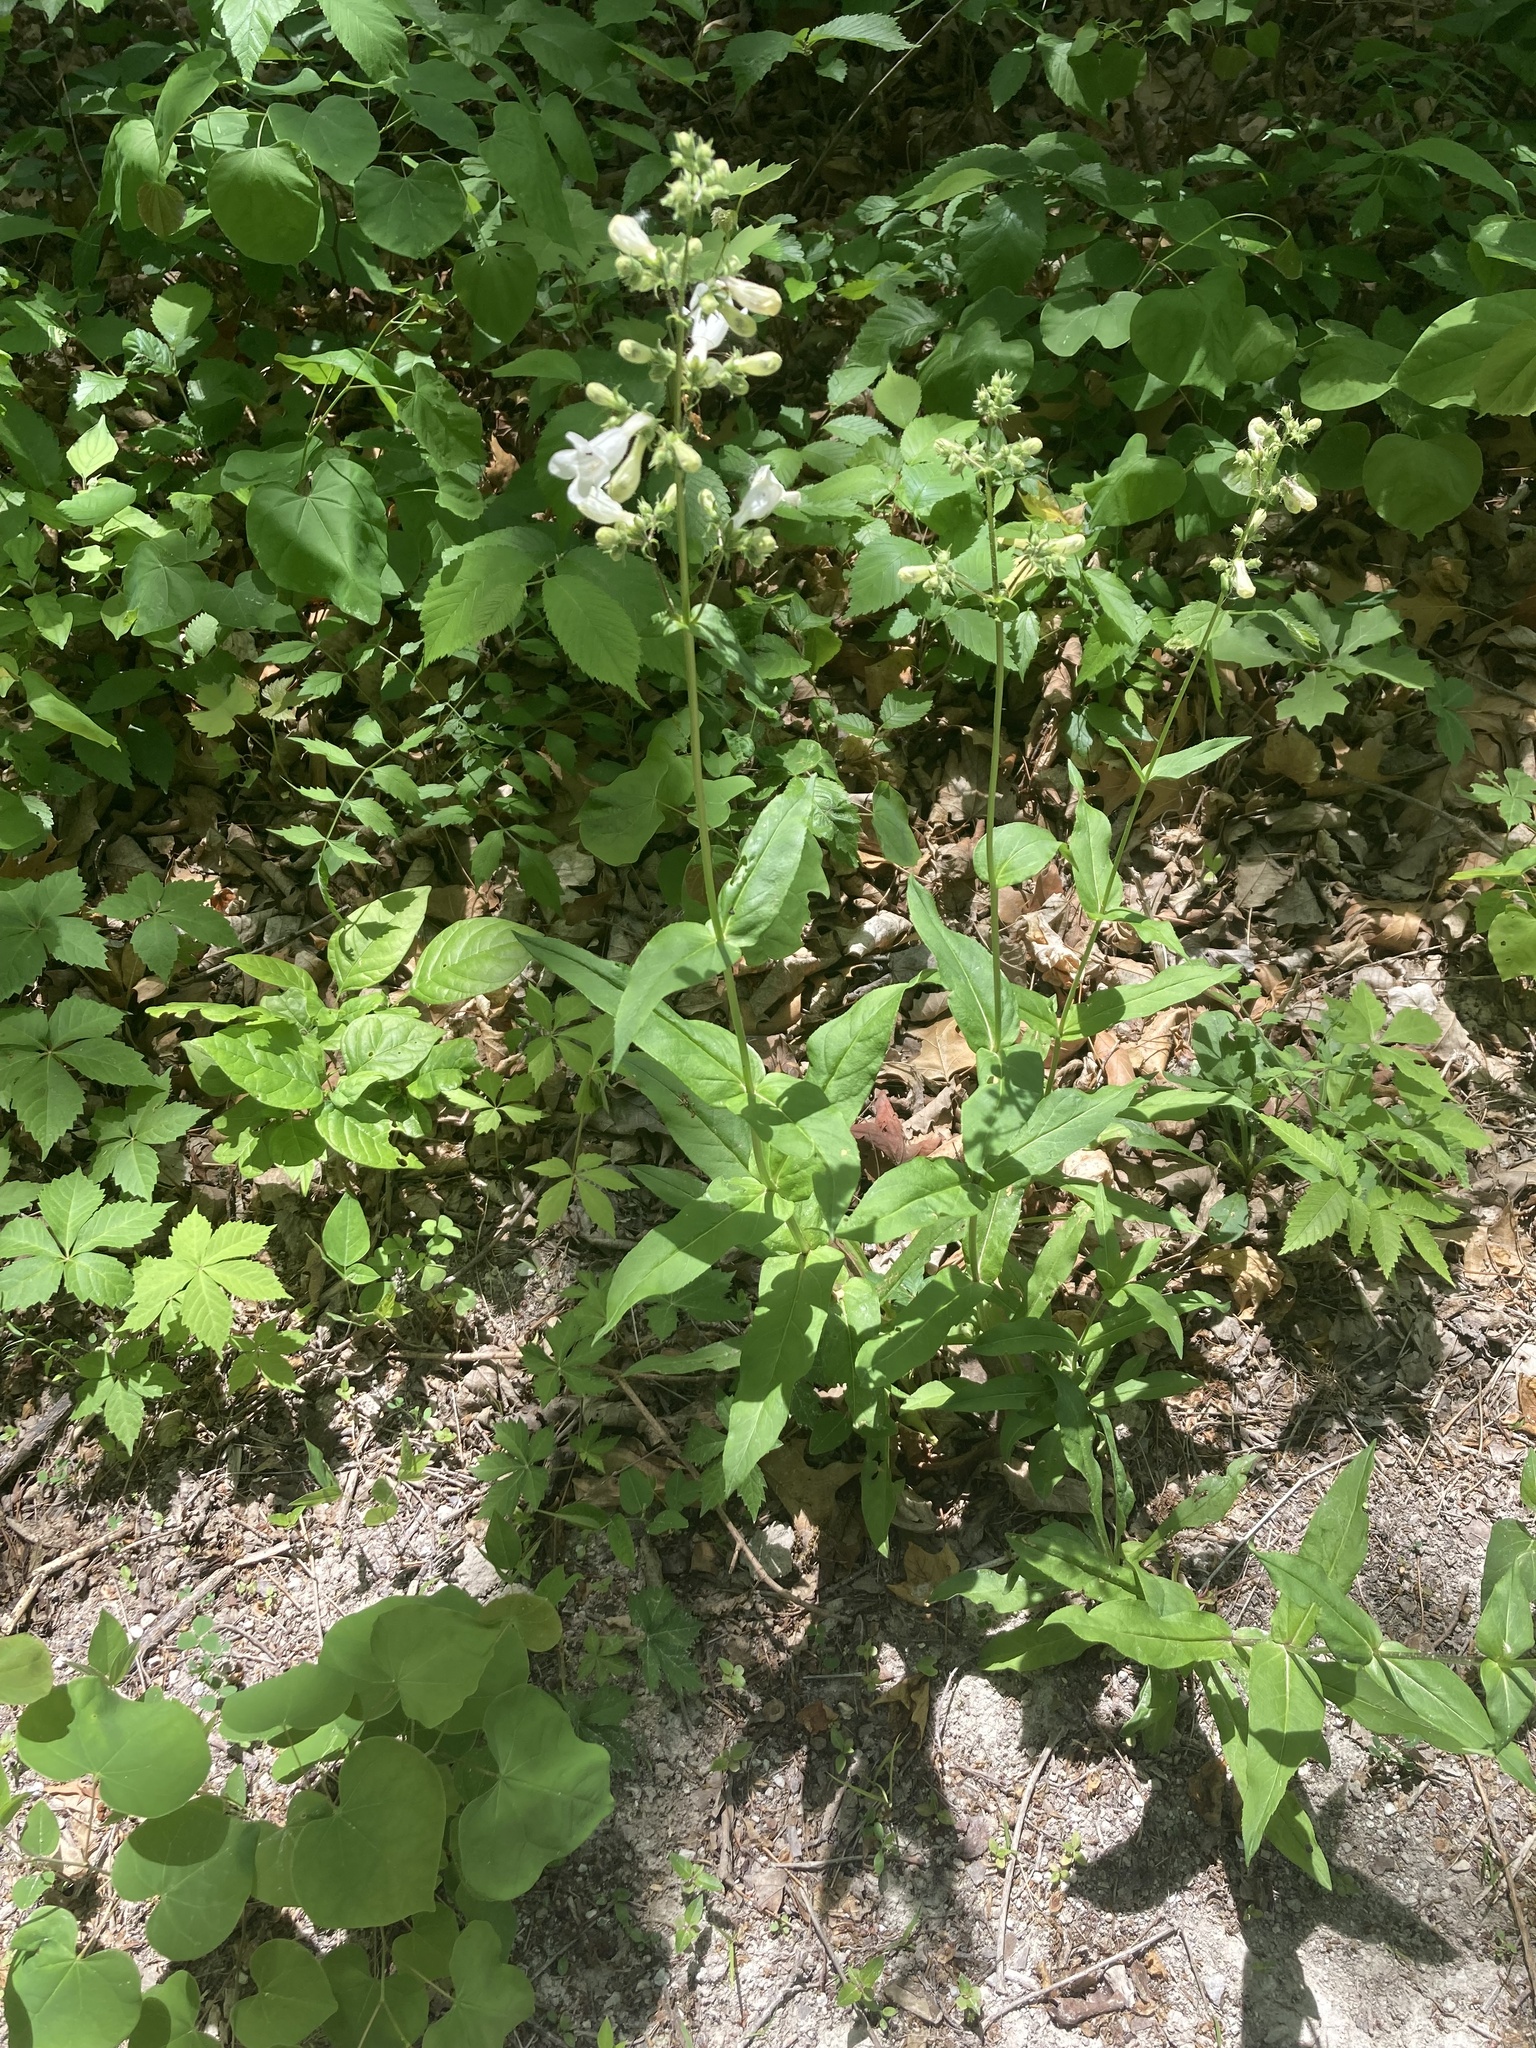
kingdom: Plantae
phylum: Tracheophyta
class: Magnoliopsida
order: Lamiales
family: Plantaginaceae
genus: Penstemon
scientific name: Penstemon digitalis
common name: Foxglove beardtongue
